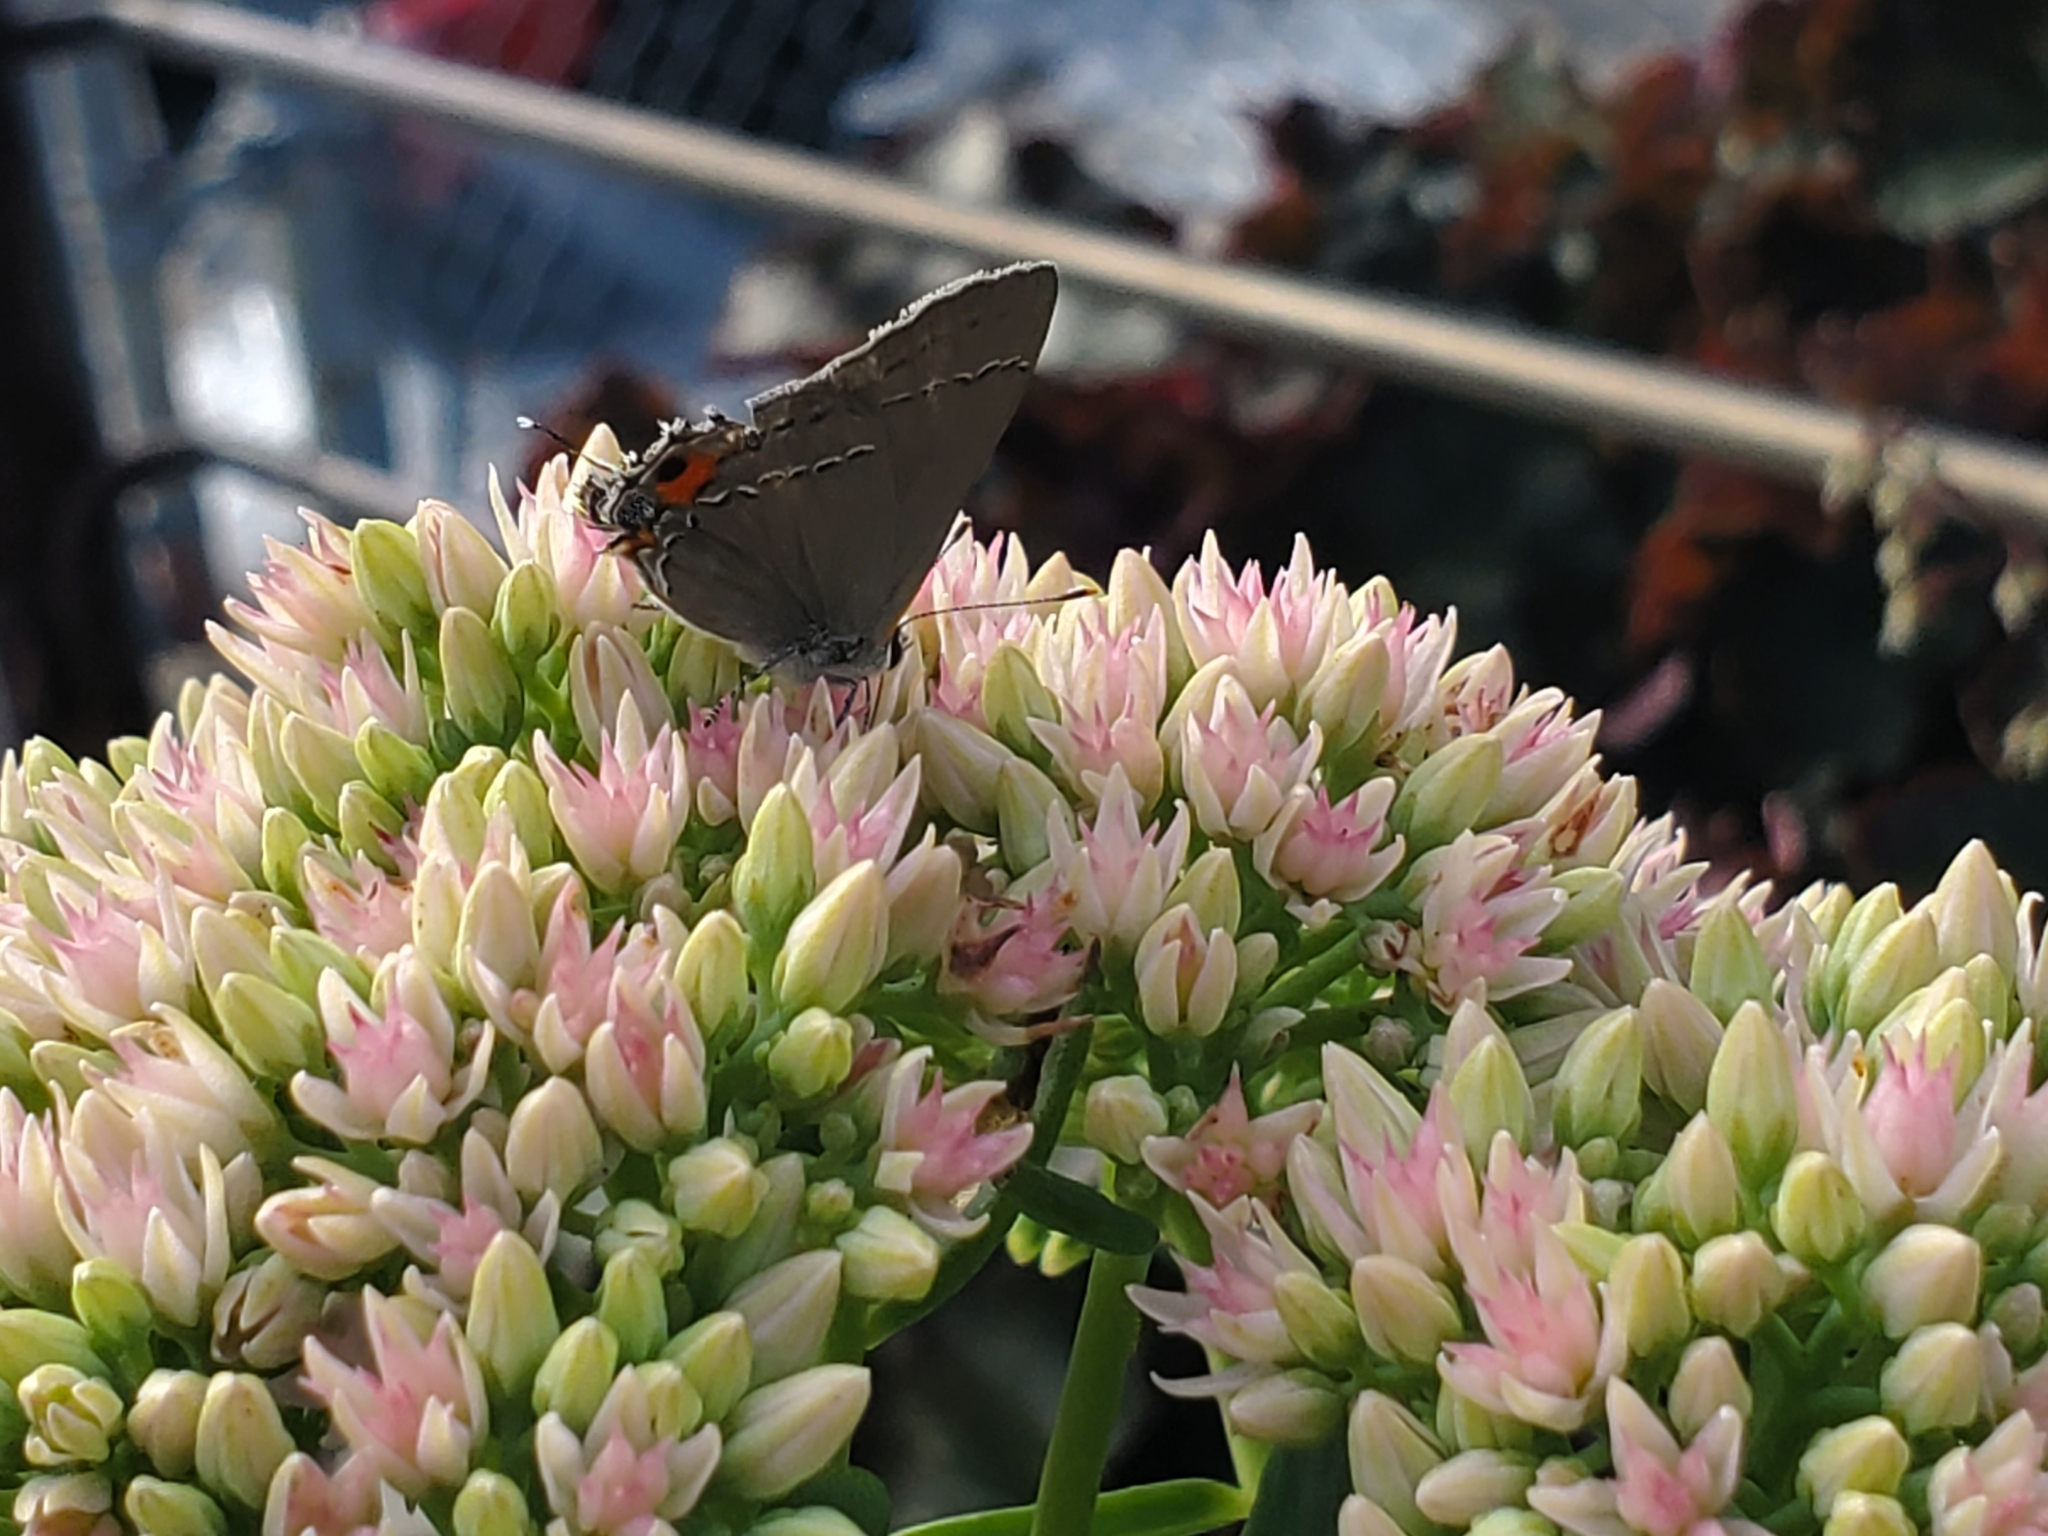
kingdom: Animalia
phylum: Arthropoda
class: Insecta
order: Lepidoptera
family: Lycaenidae
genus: Strymon
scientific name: Strymon melinus
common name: Gray hairstreak
